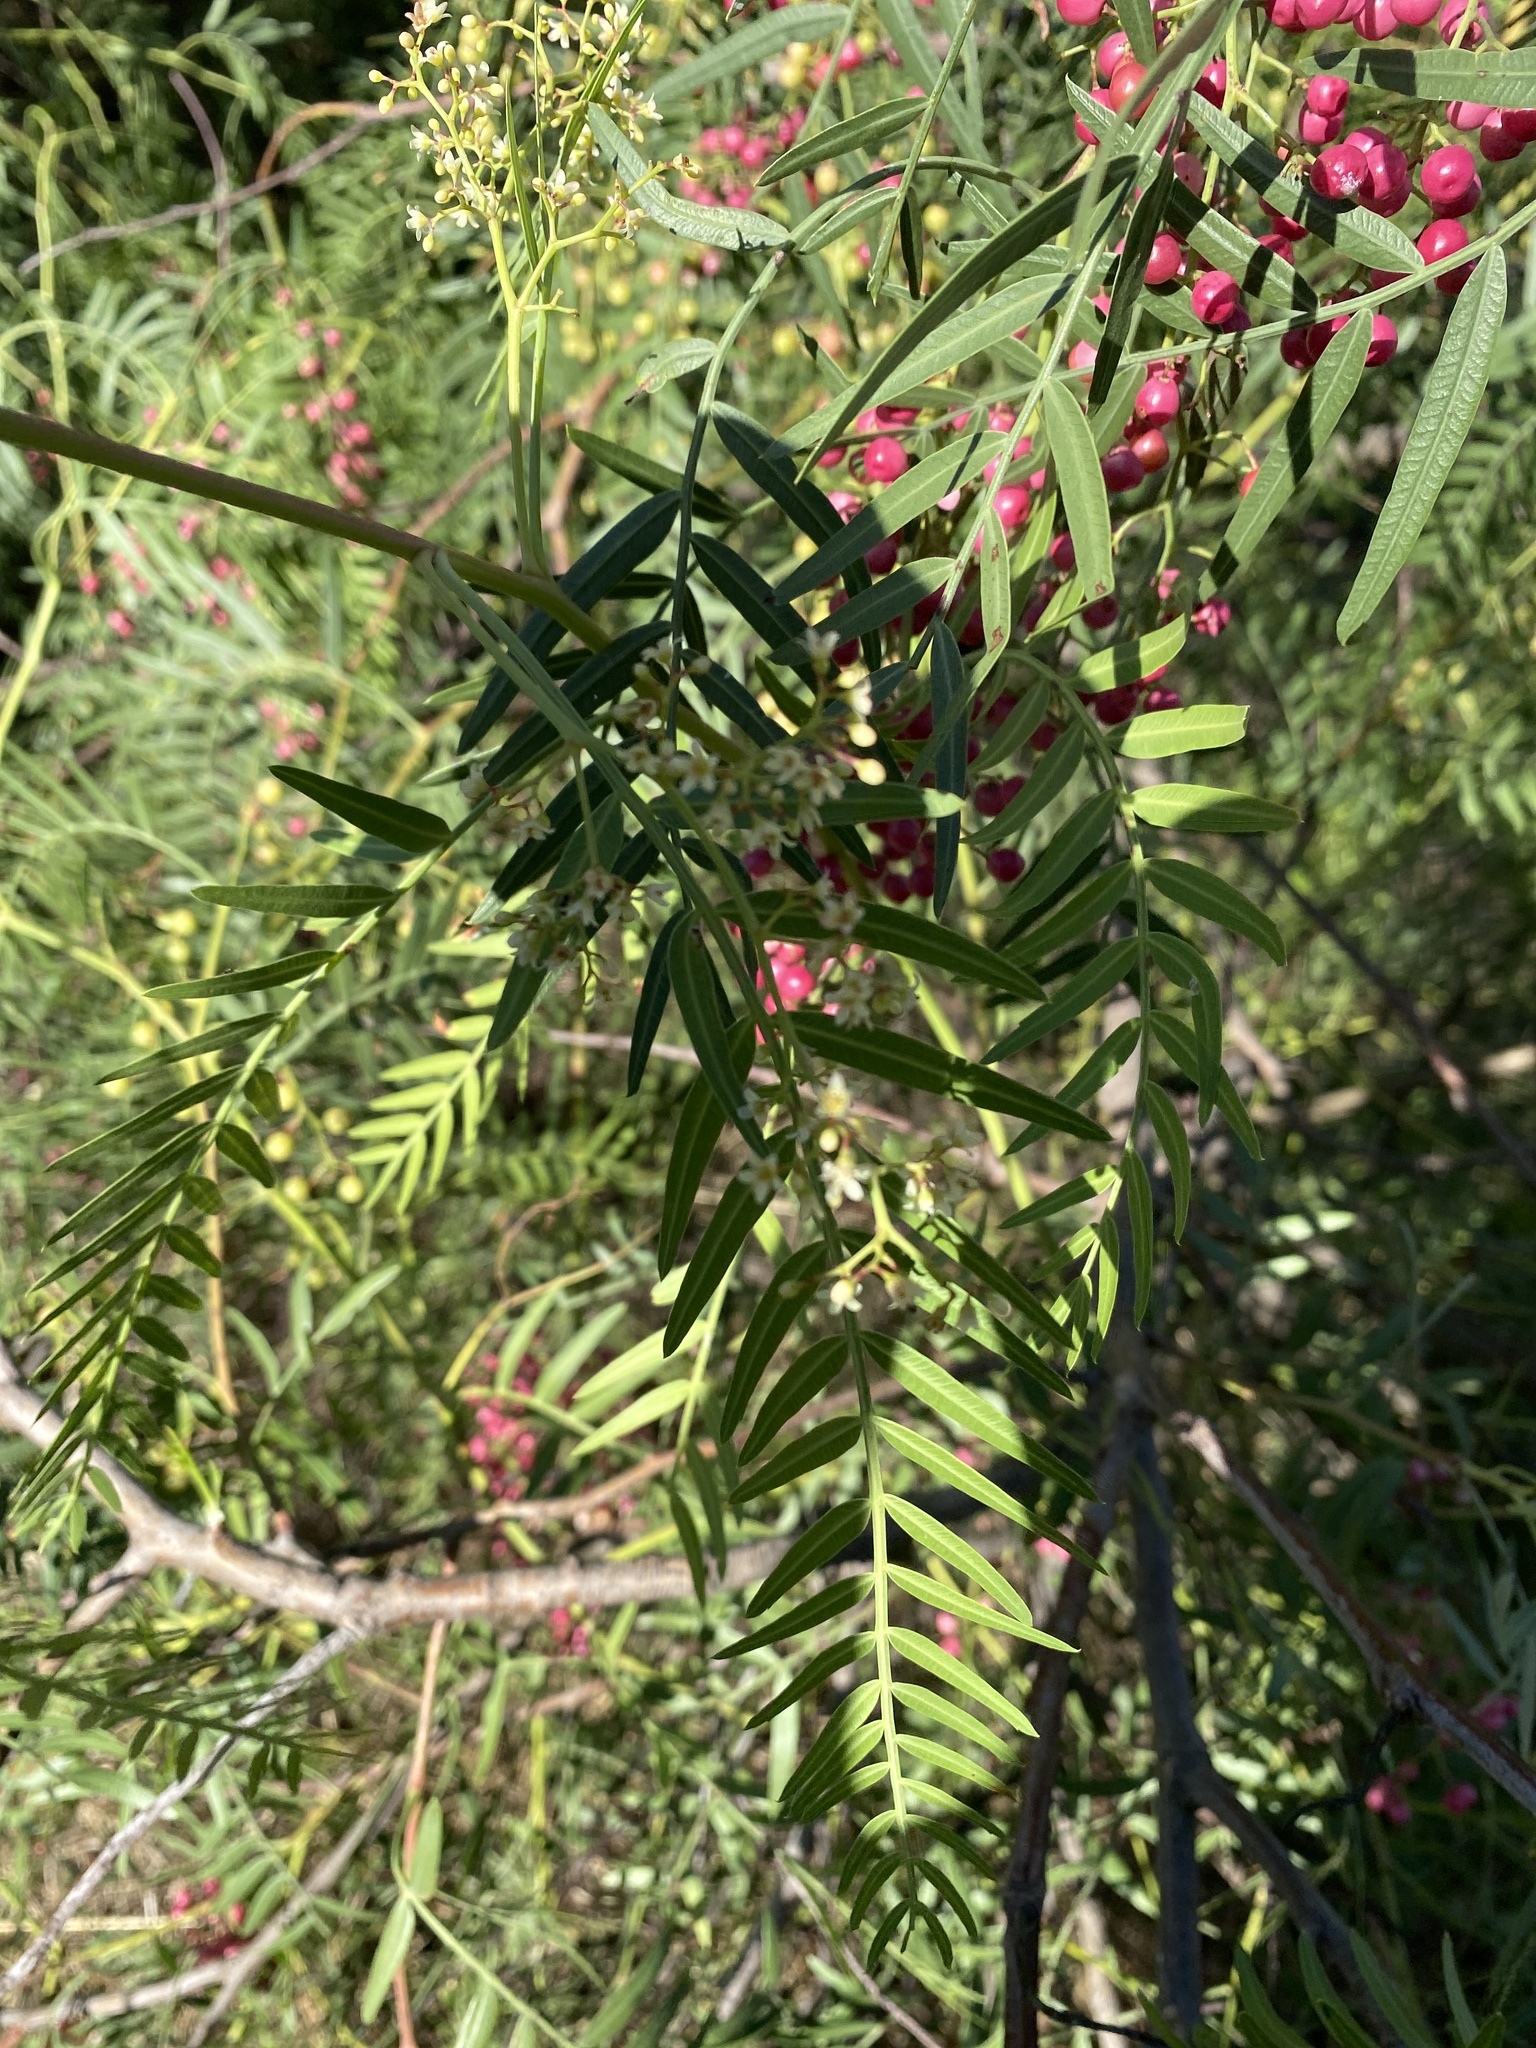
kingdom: Plantae
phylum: Tracheophyta
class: Magnoliopsida
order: Sapindales
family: Anacardiaceae
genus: Schinus
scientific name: Schinus areira
